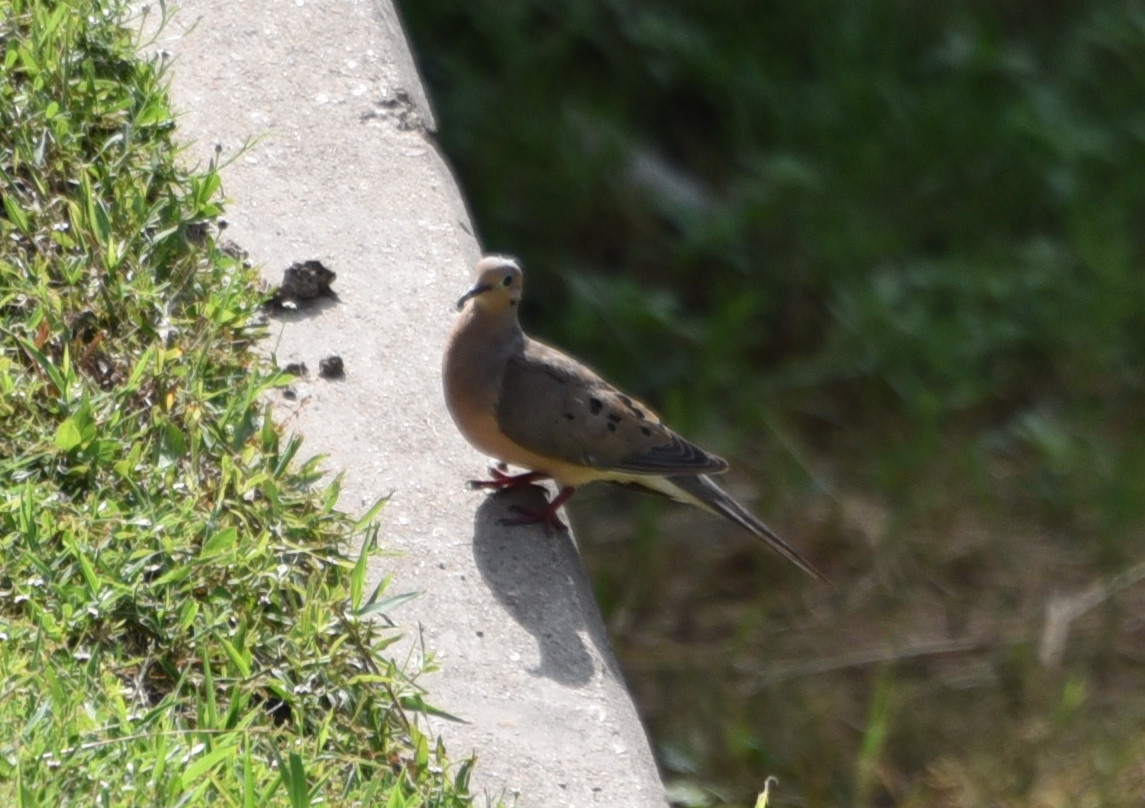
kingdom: Animalia
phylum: Chordata
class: Aves
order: Columbiformes
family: Columbidae
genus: Zenaida
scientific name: Zenaida macroura
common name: Mourning dove
